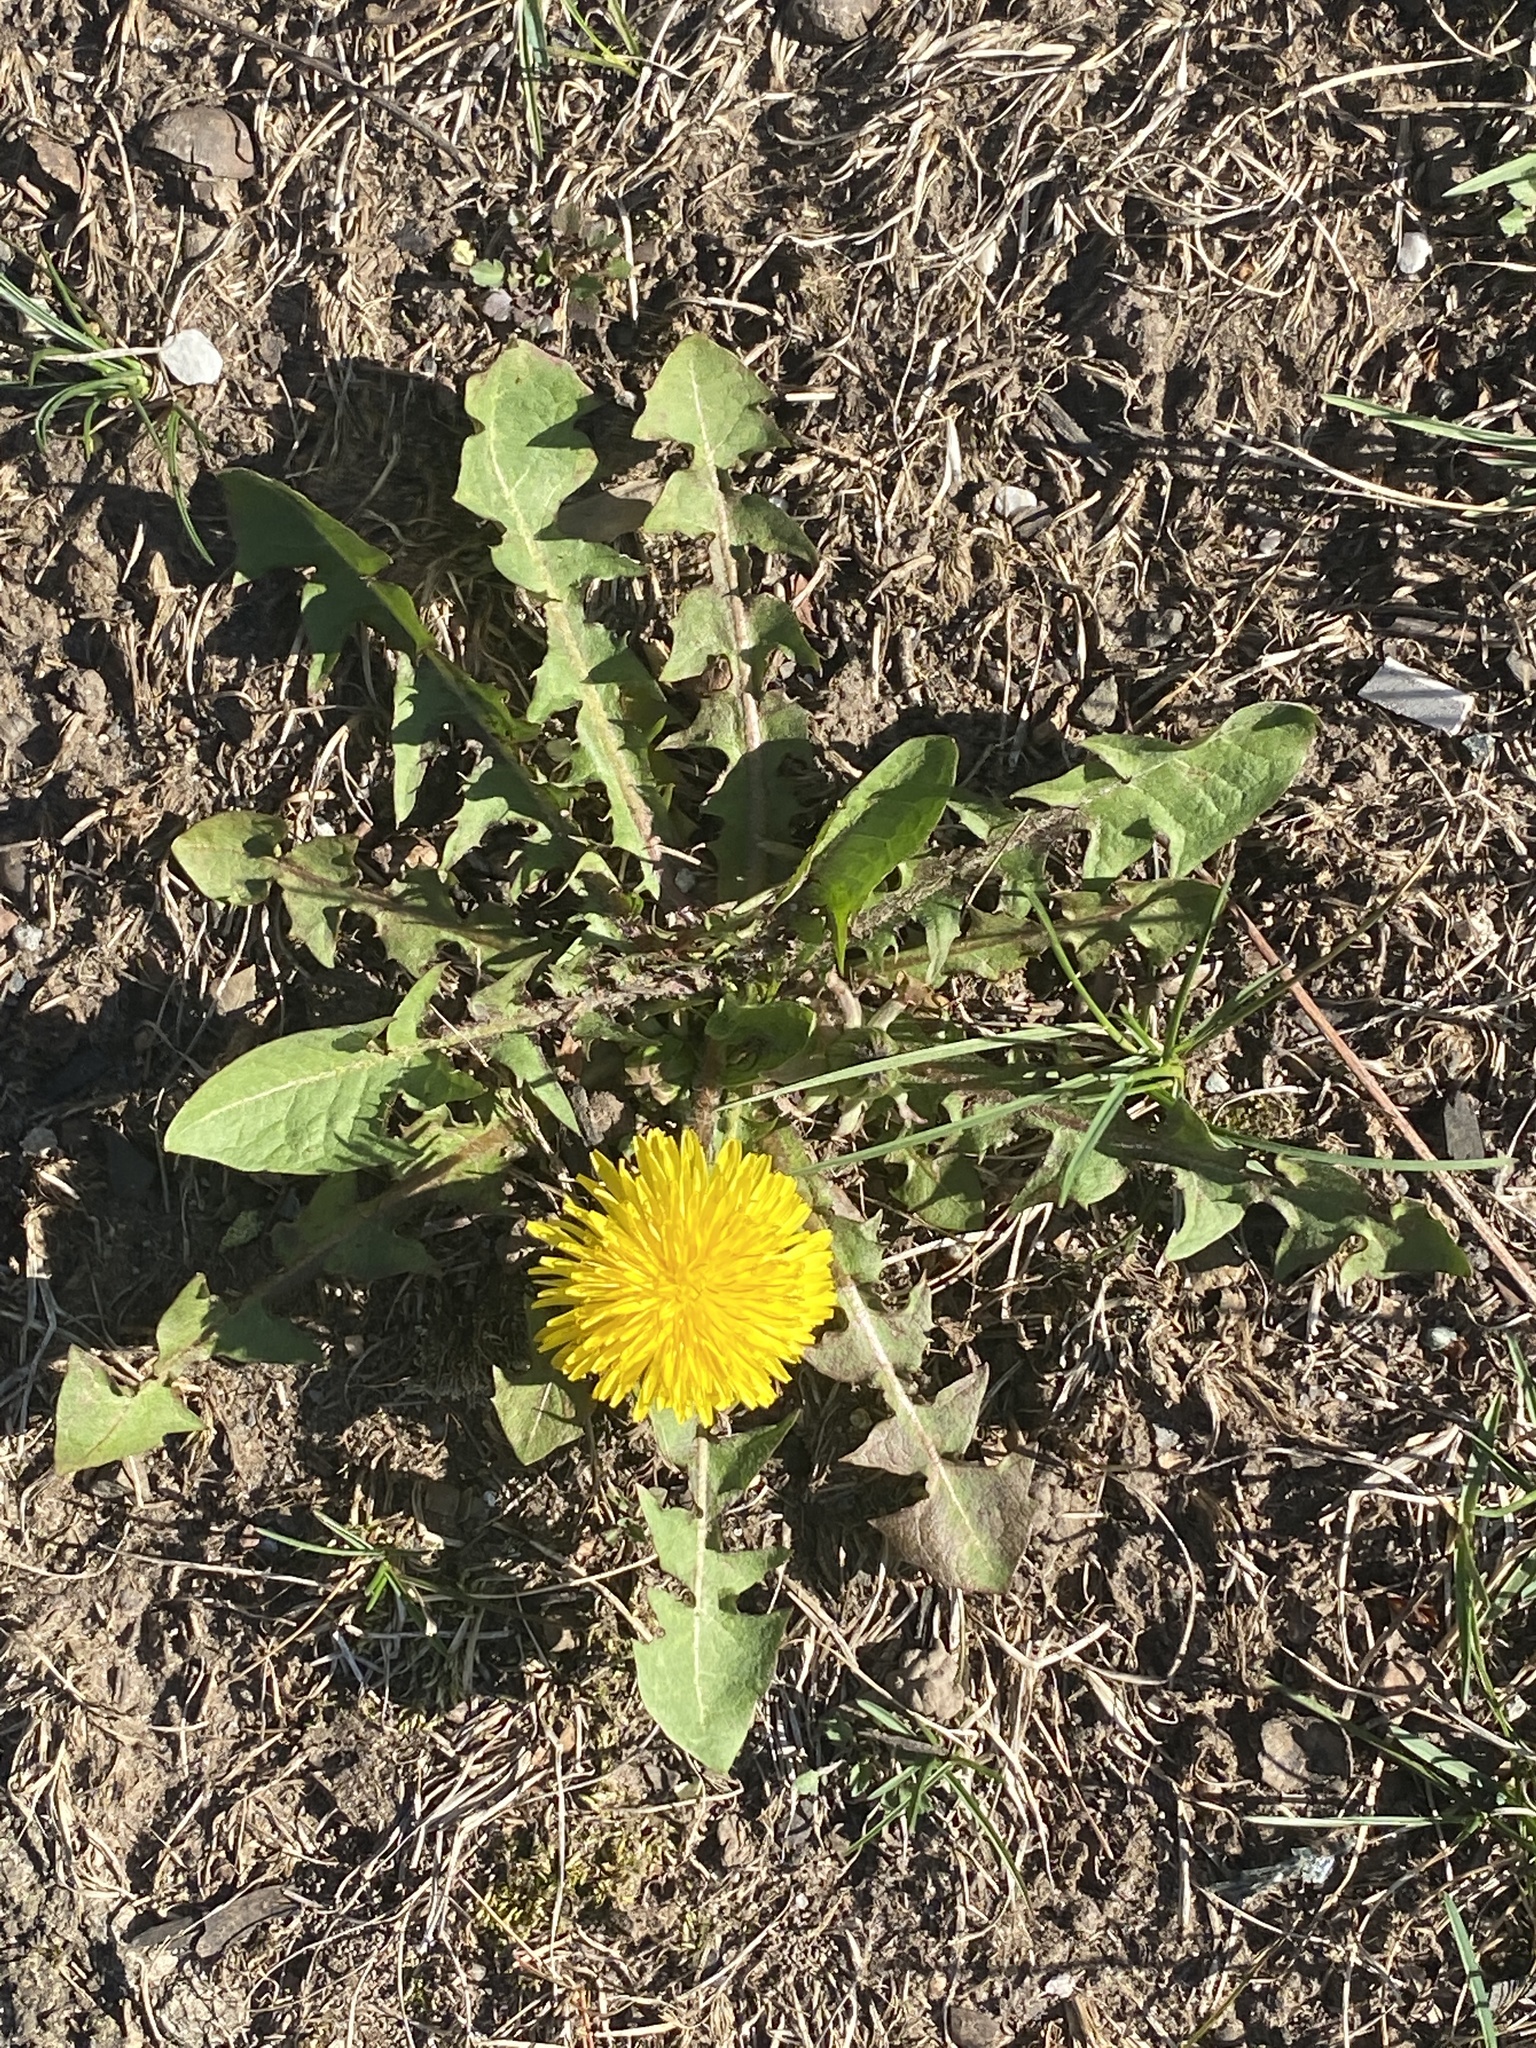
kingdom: Plantae
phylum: Tracheophyta
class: Magnoliopsida
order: Asterales
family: Asteraceae
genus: Taraxacum
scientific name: Taraxacum
